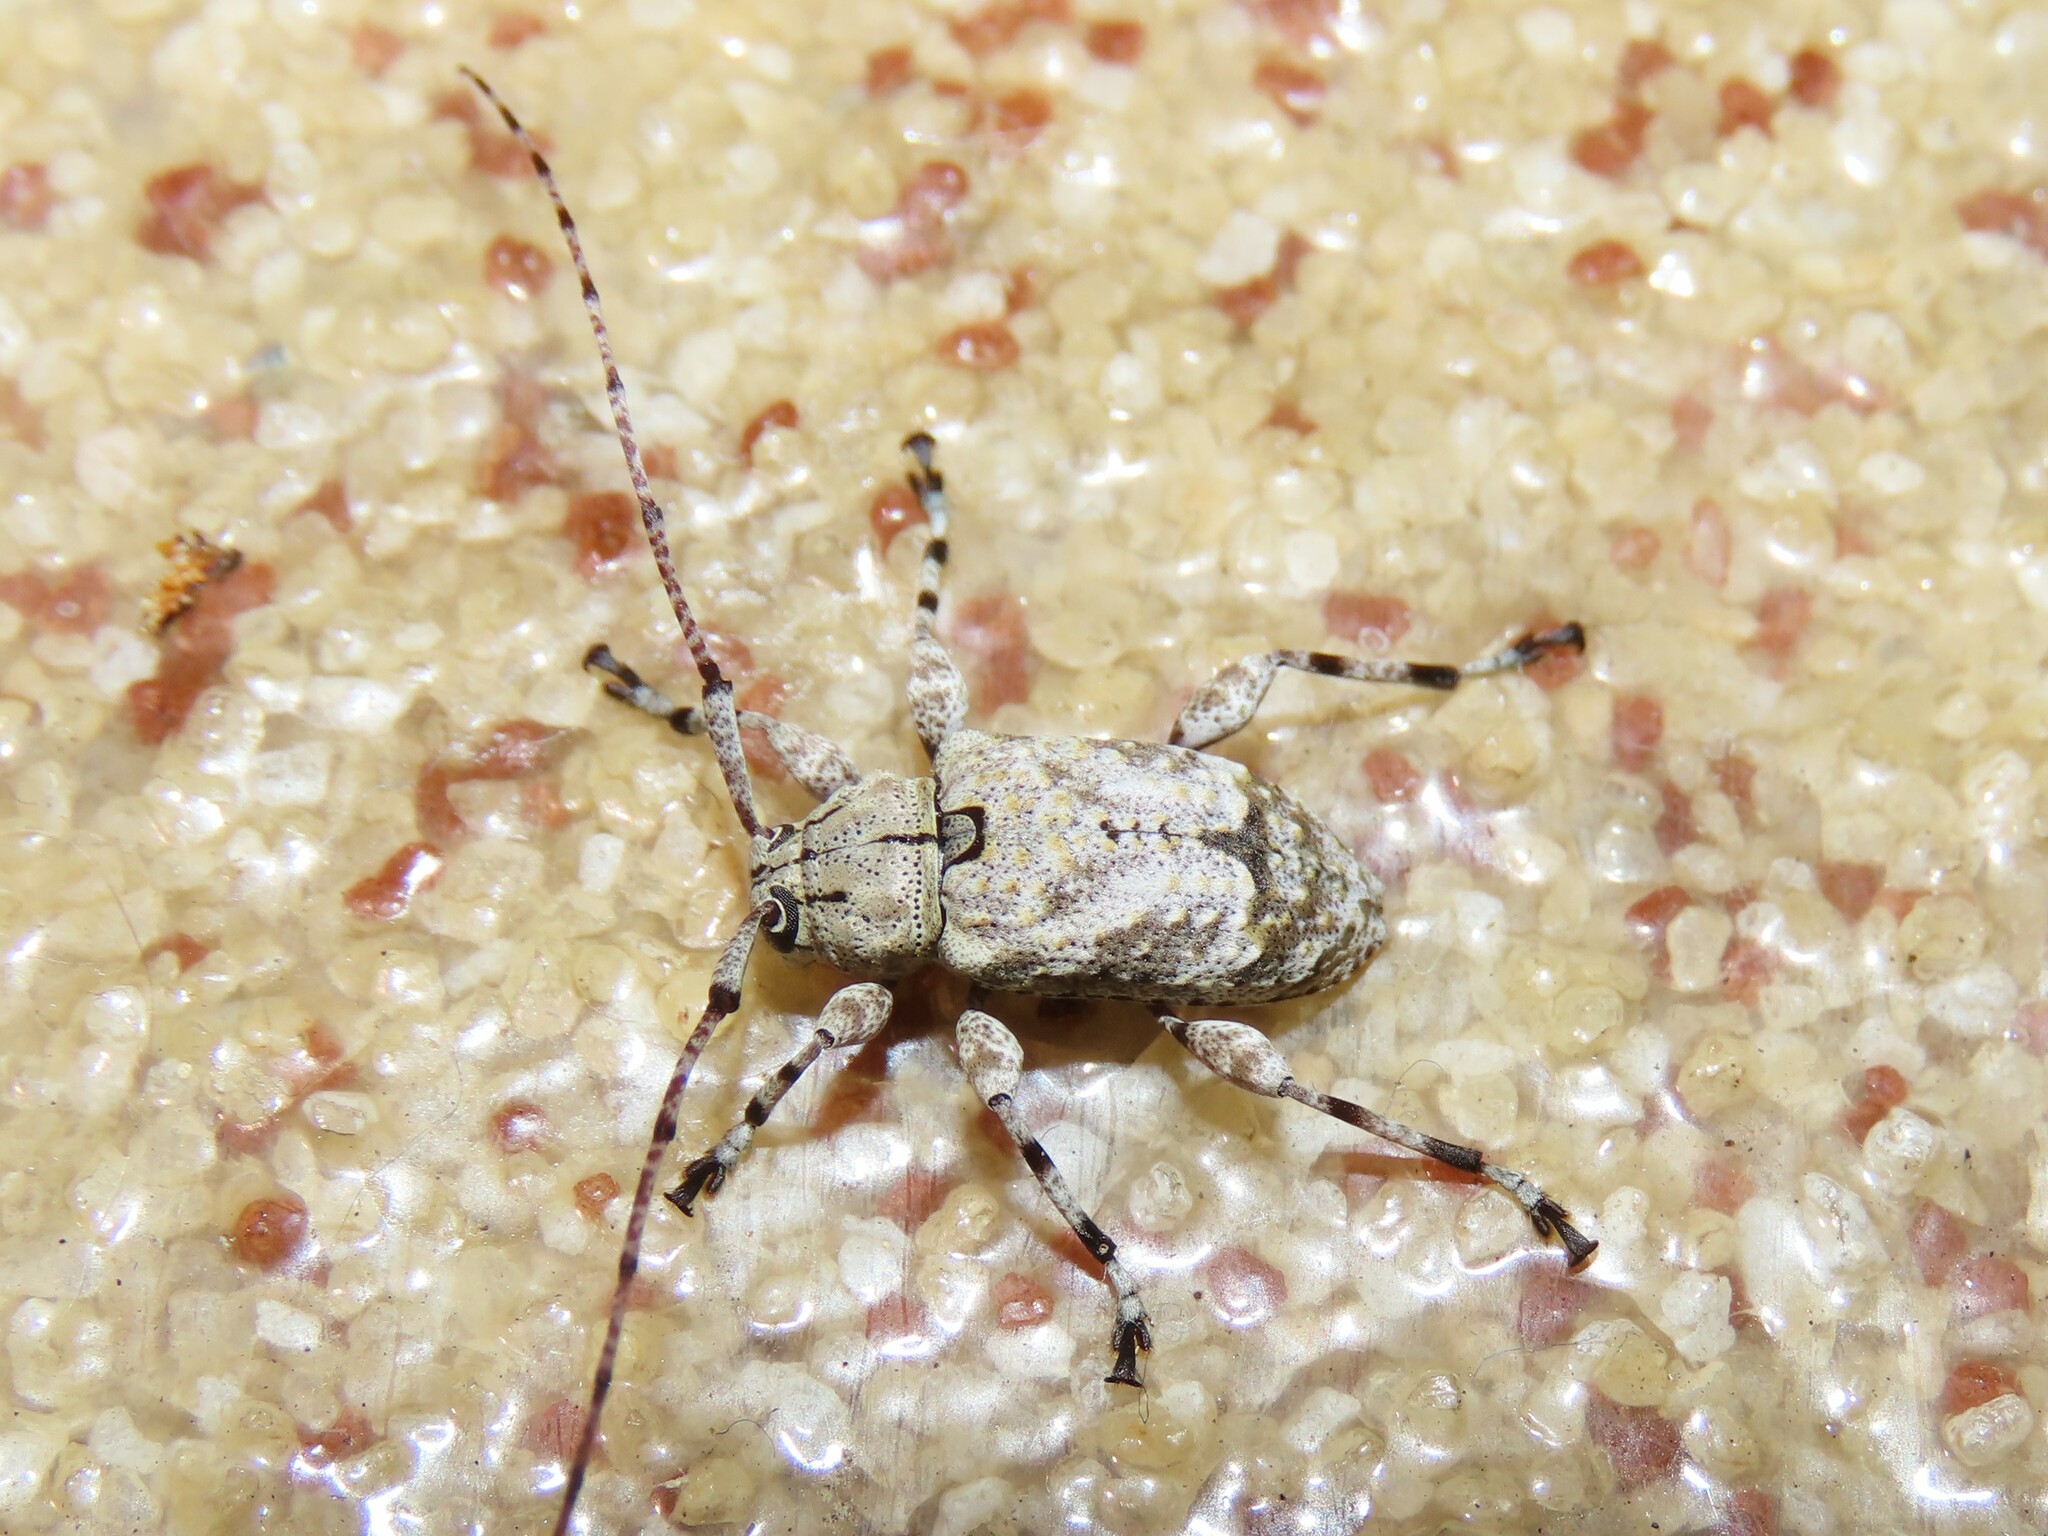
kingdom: Animalia
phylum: Arthropoda
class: Insecta
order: Coleoptera
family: Cerambycidae
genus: Leptostylopsis
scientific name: Leptostylopsis argentatus
